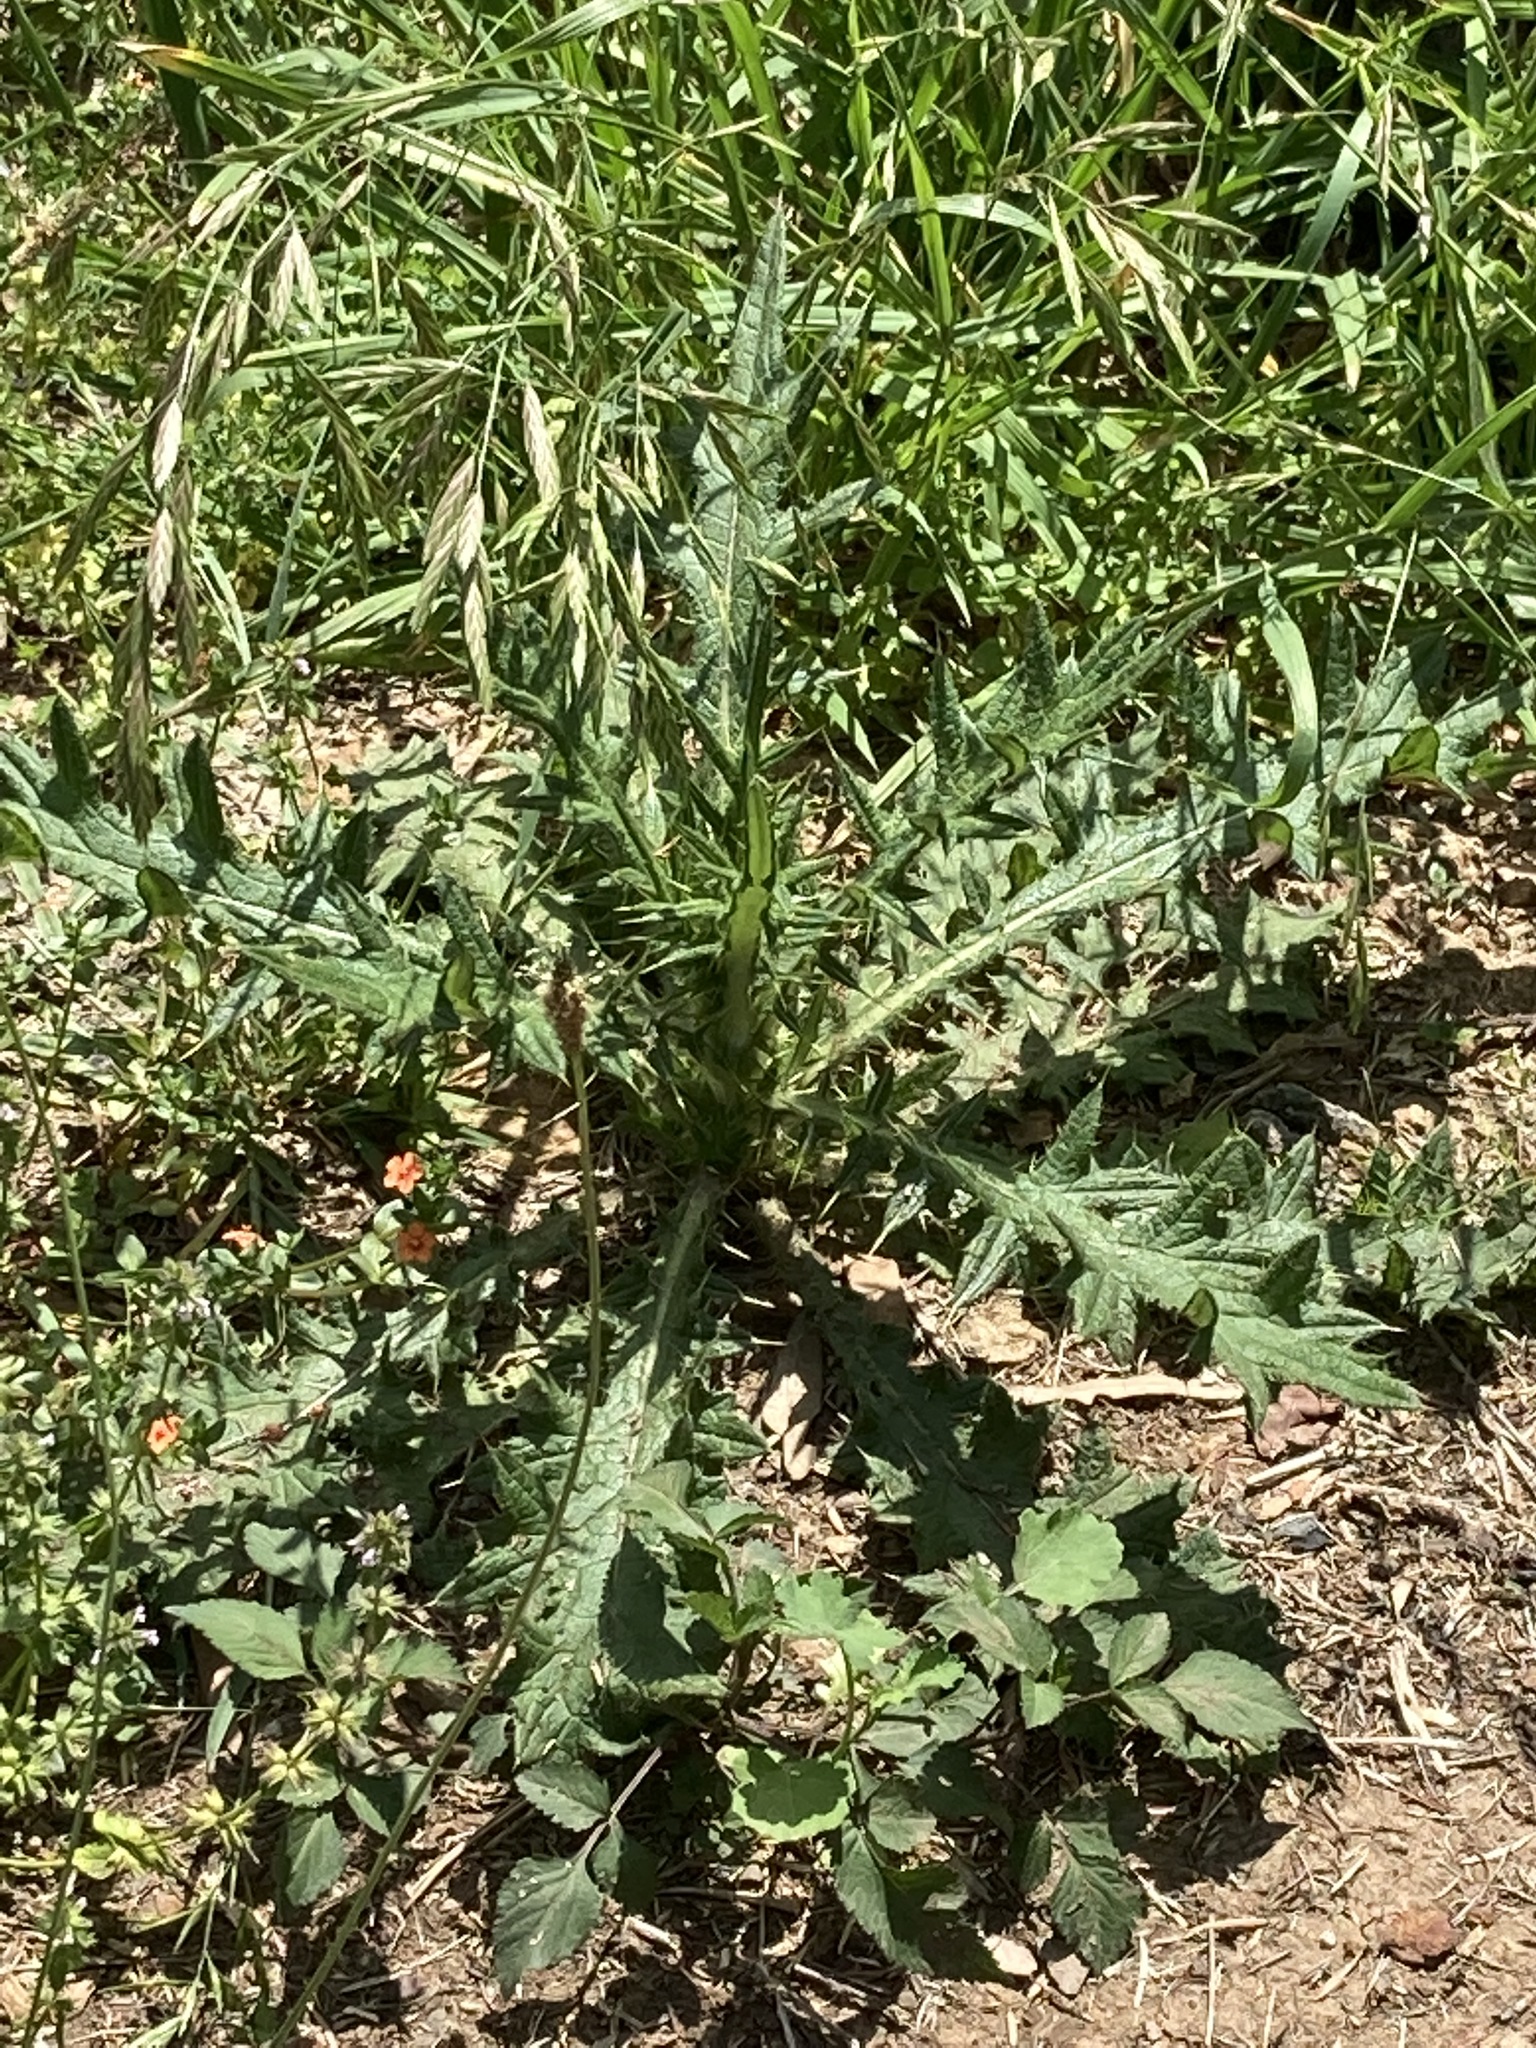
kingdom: Plantae
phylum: Tracheophyta
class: Magnoliopsida
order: Asterales
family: Asteraceae
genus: Cirsium
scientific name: Cirsium vulgare
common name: Bull thistle
